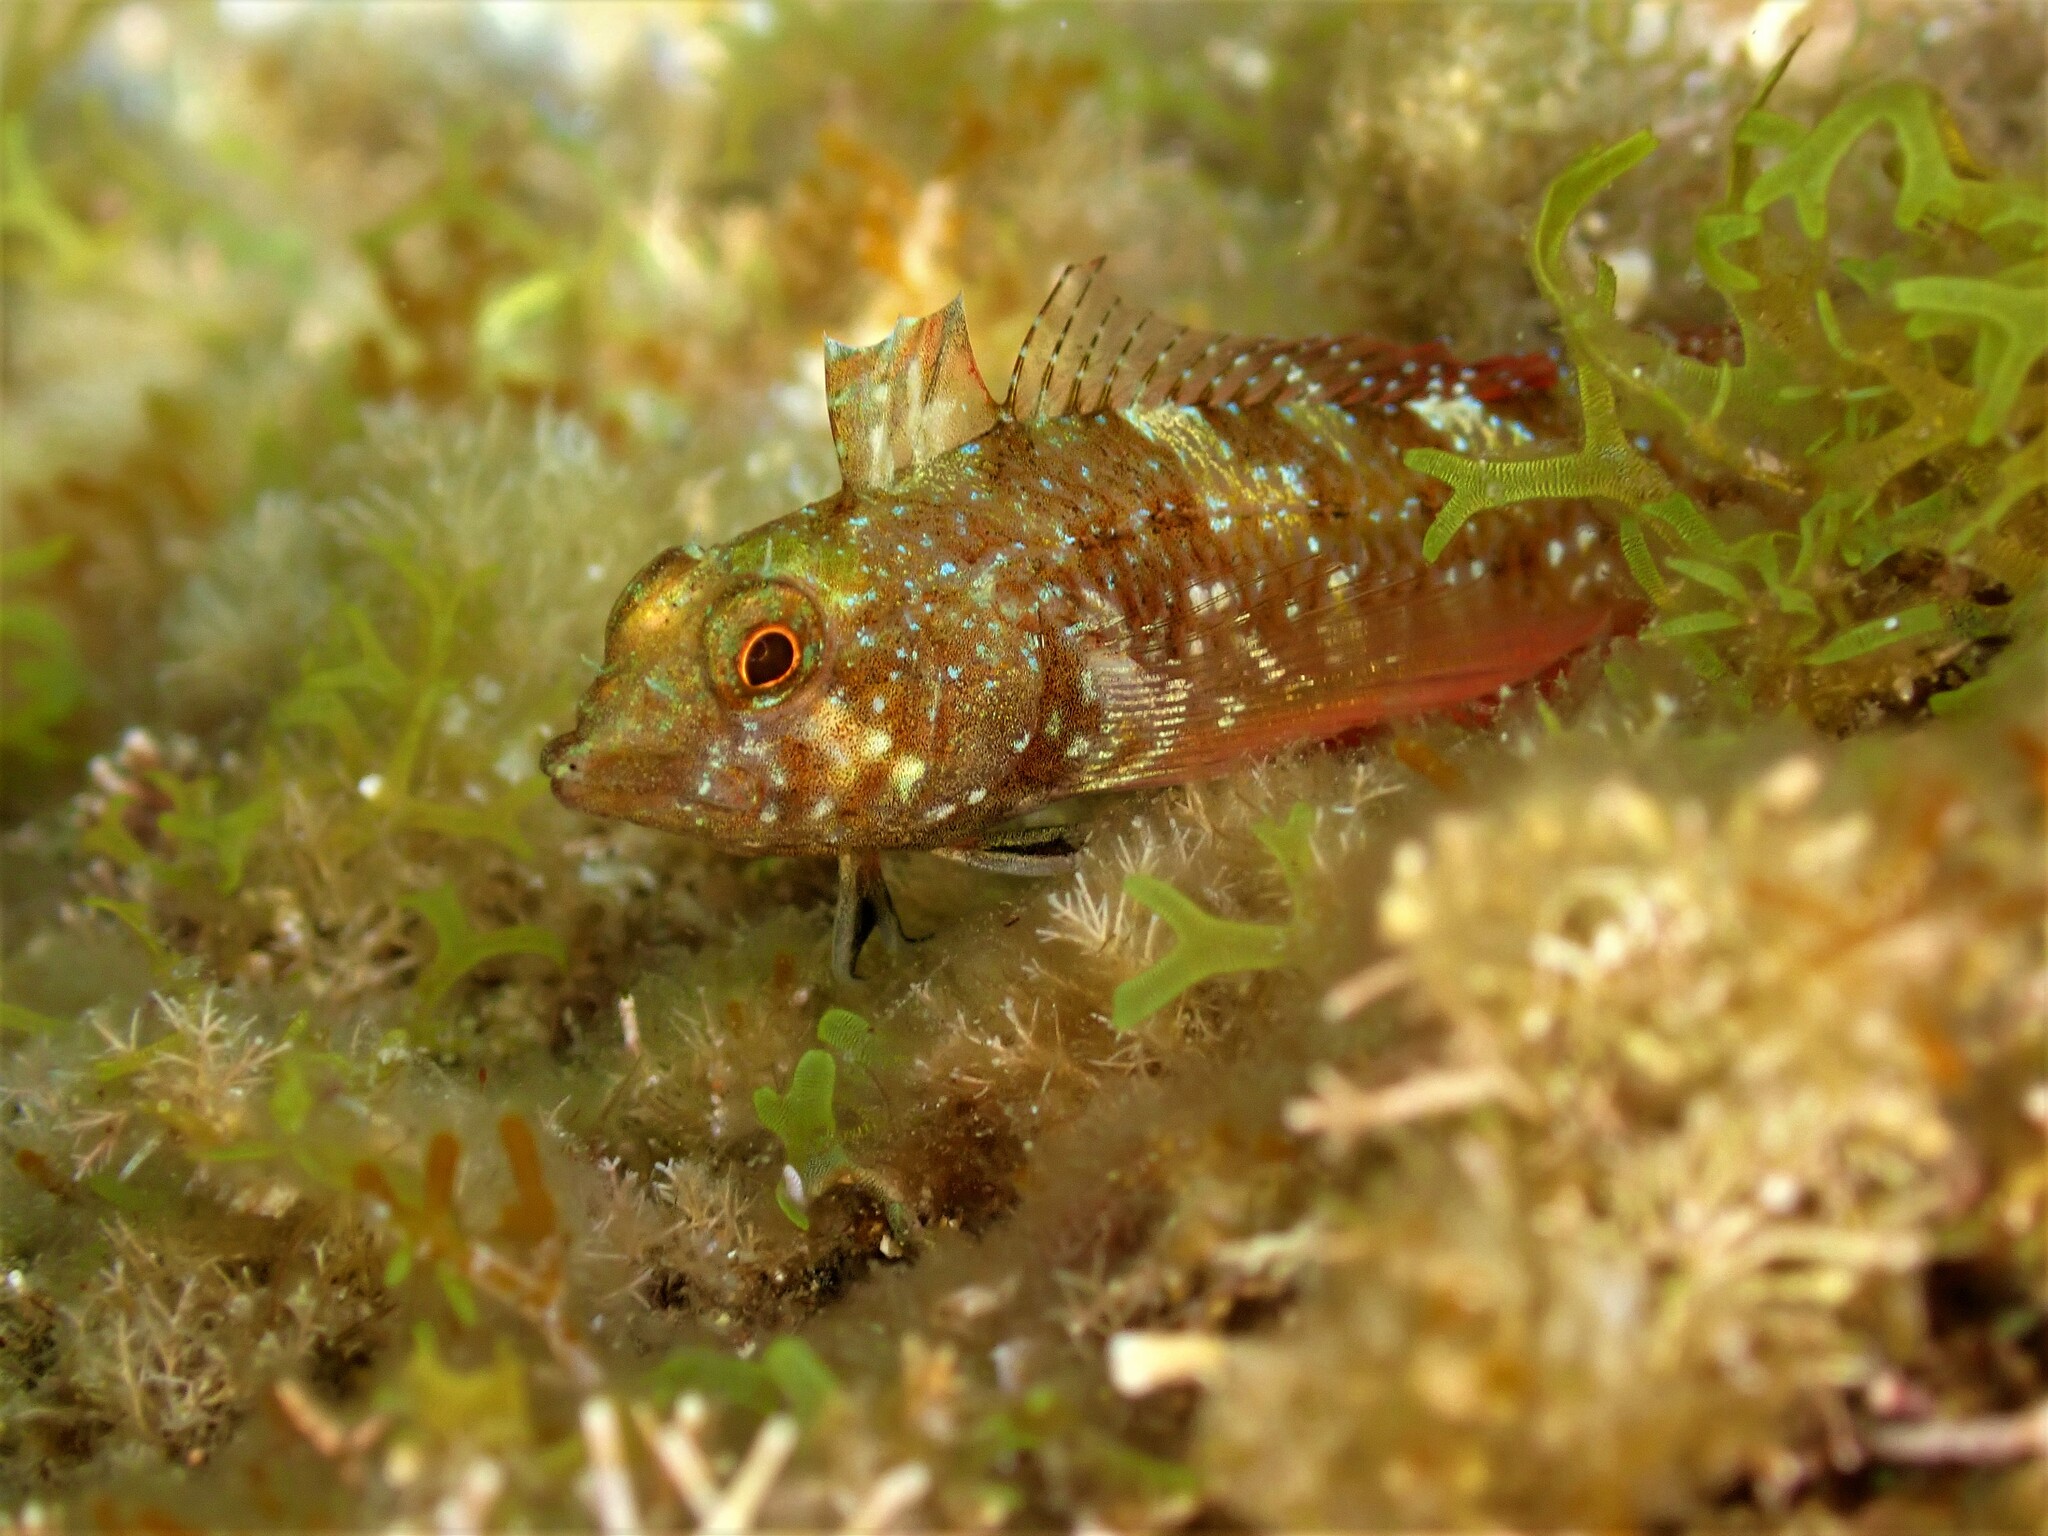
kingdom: Animalia
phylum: Chordata
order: Perciformes
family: Tripterygiidae
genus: Tripterygion
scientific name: Tripterygion tripteronotum
